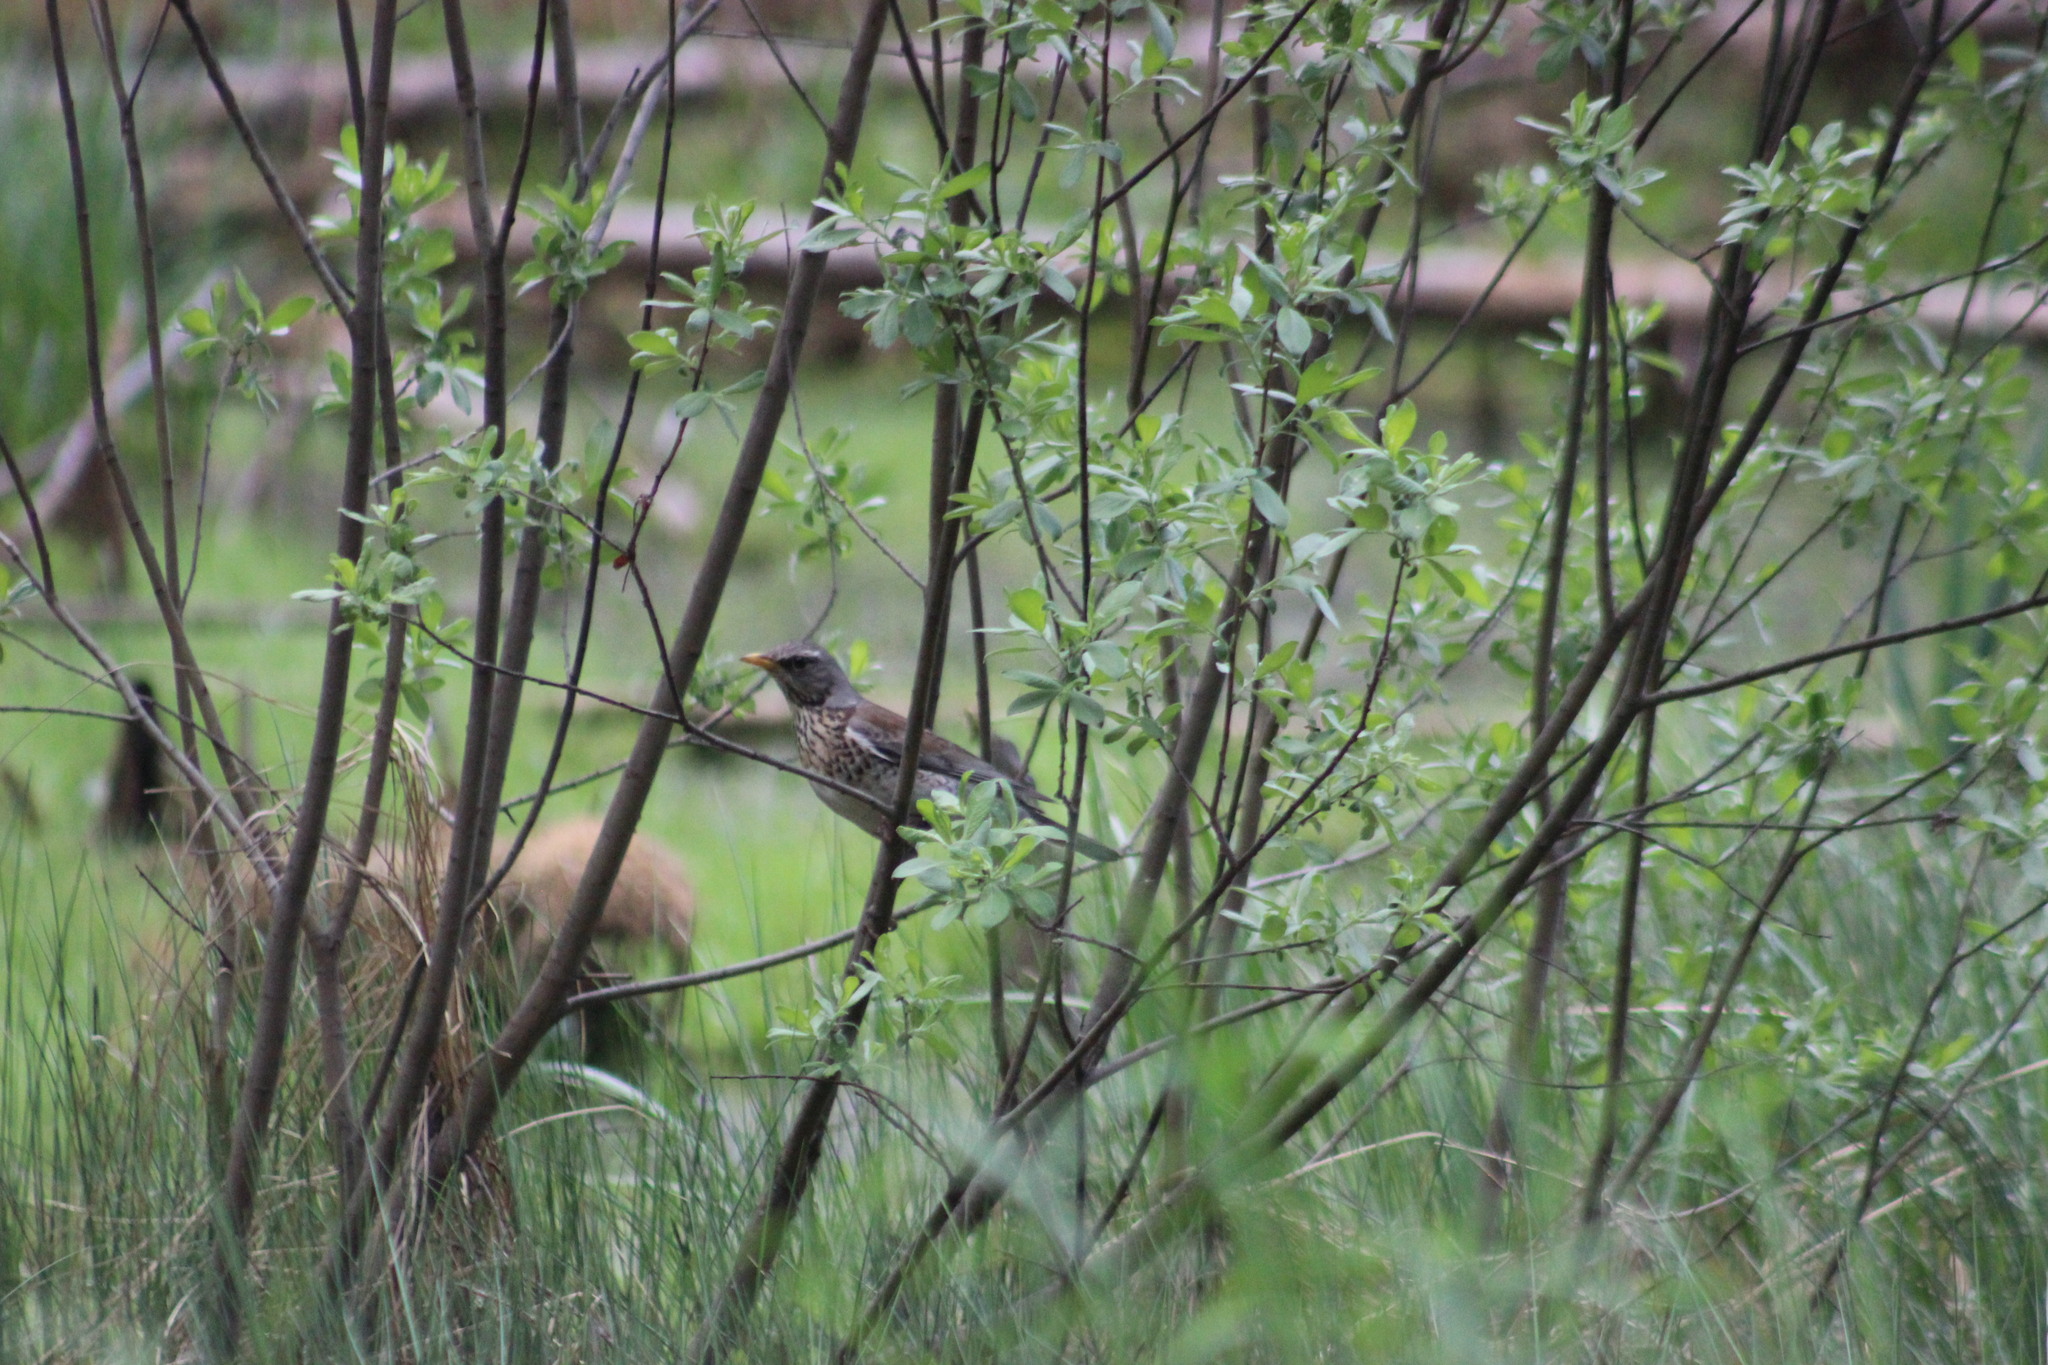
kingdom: Animalia
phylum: Chordata
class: Aves
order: Passeriformes
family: Turdidae
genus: Turdus
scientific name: Turdus pilaris
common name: Fieldfare
